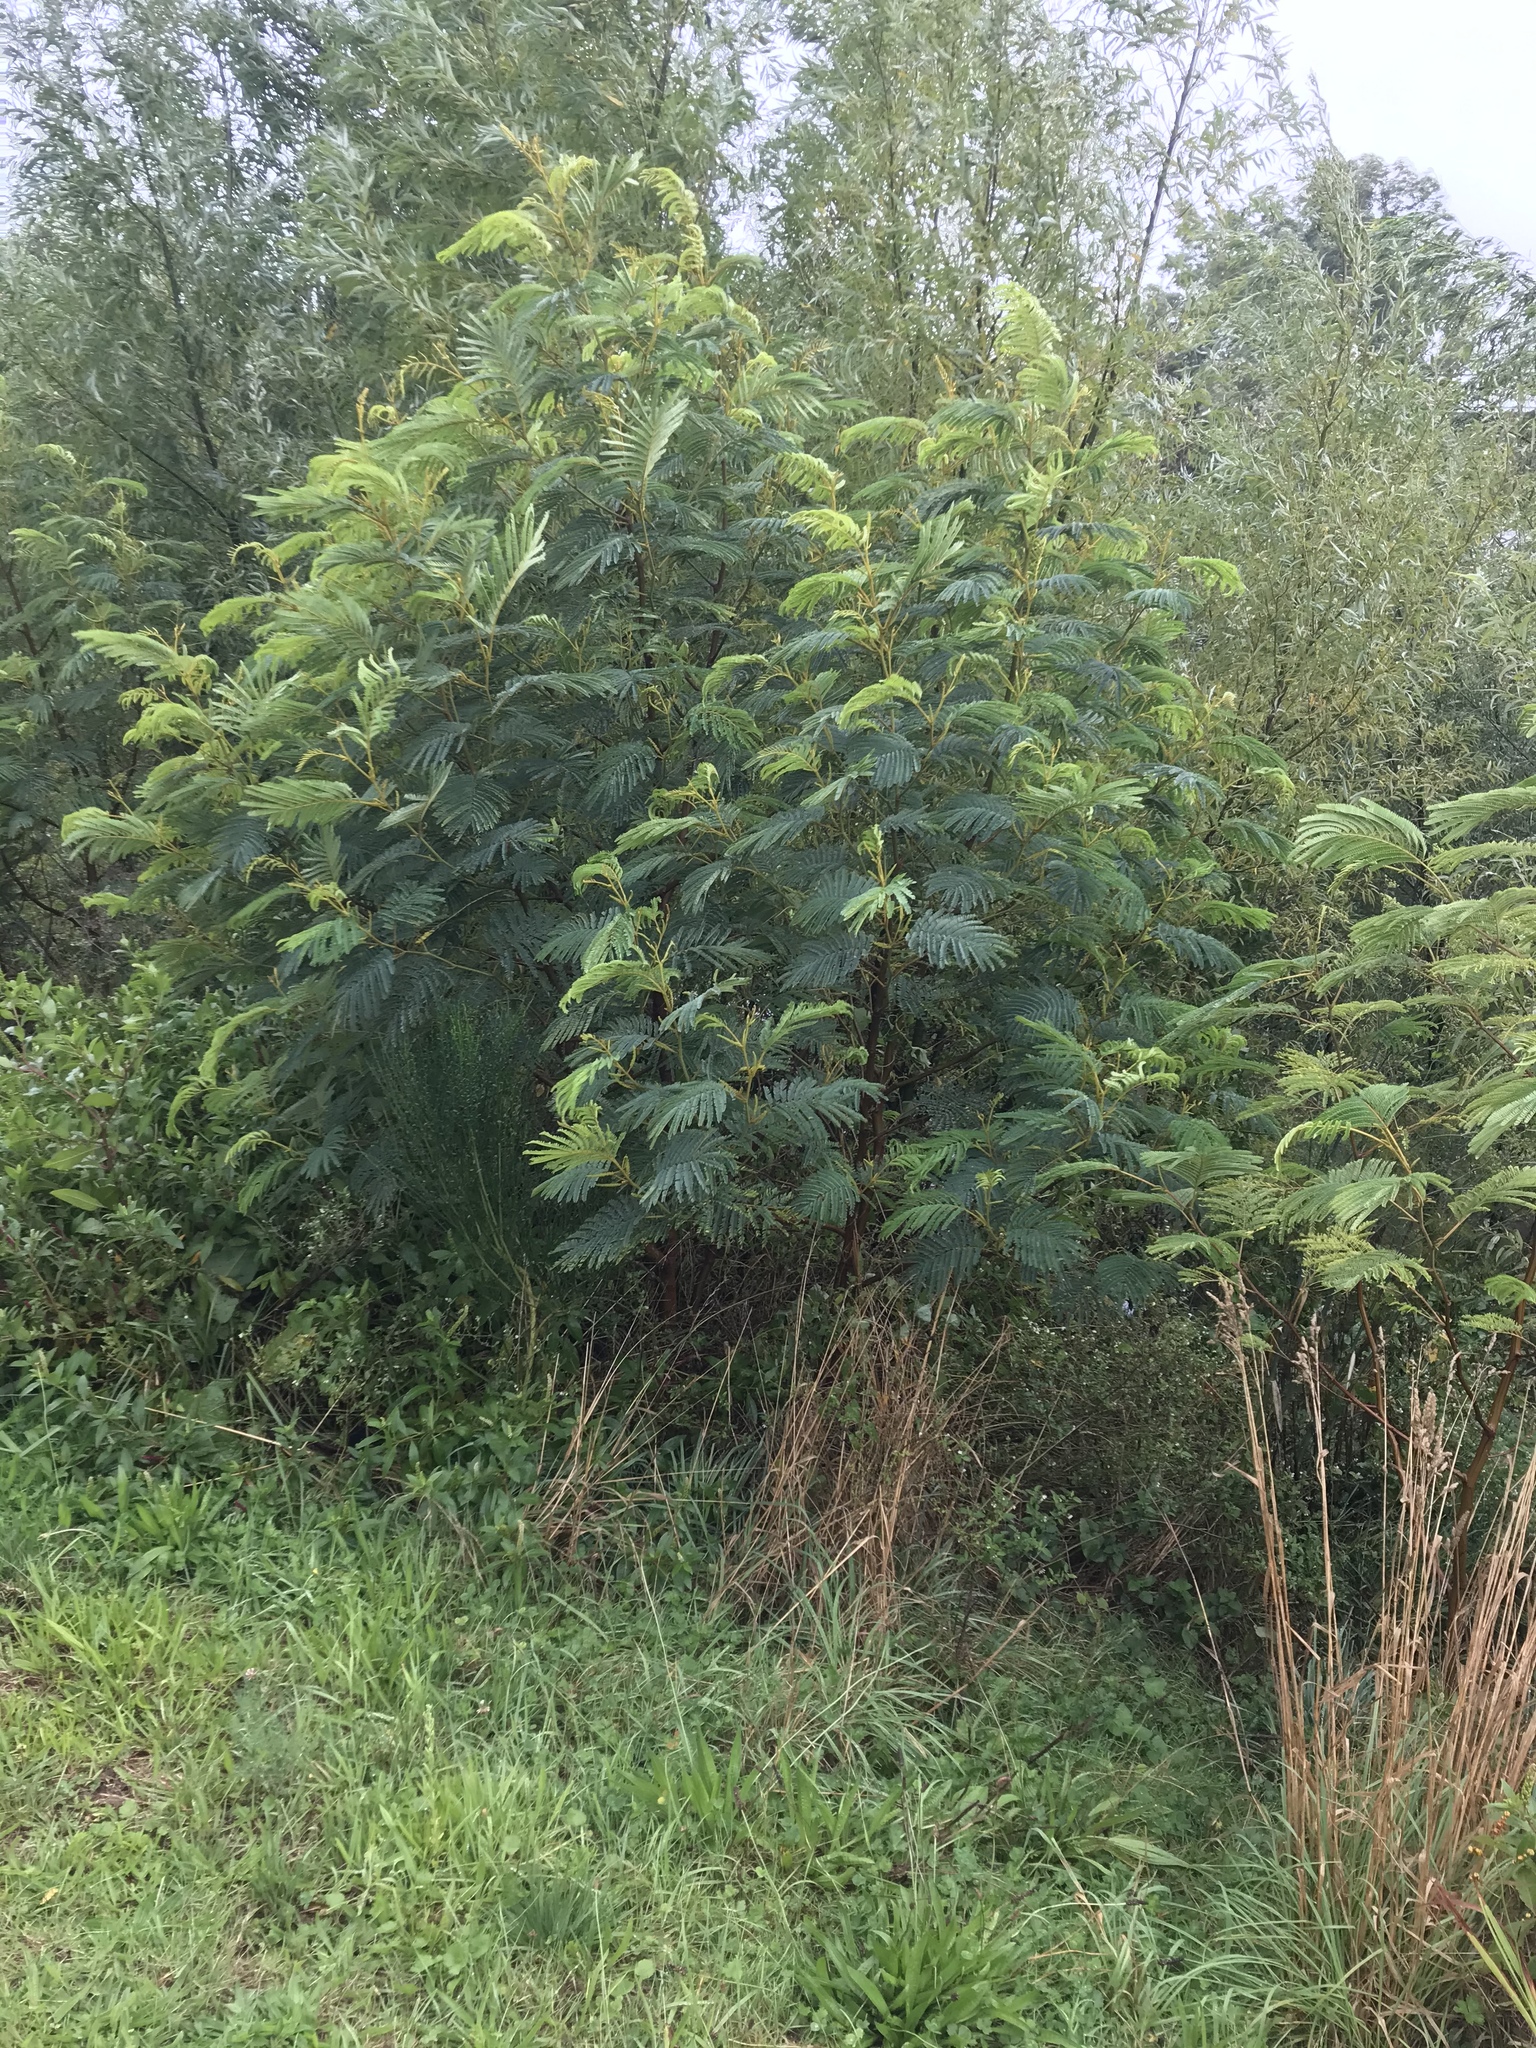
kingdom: Plantae
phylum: Tracheophyta
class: Magnoliopsida
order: Fabales
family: Fabaceae
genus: Paraserianthes
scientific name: Paraserianthes lophantha
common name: Plume albizia
